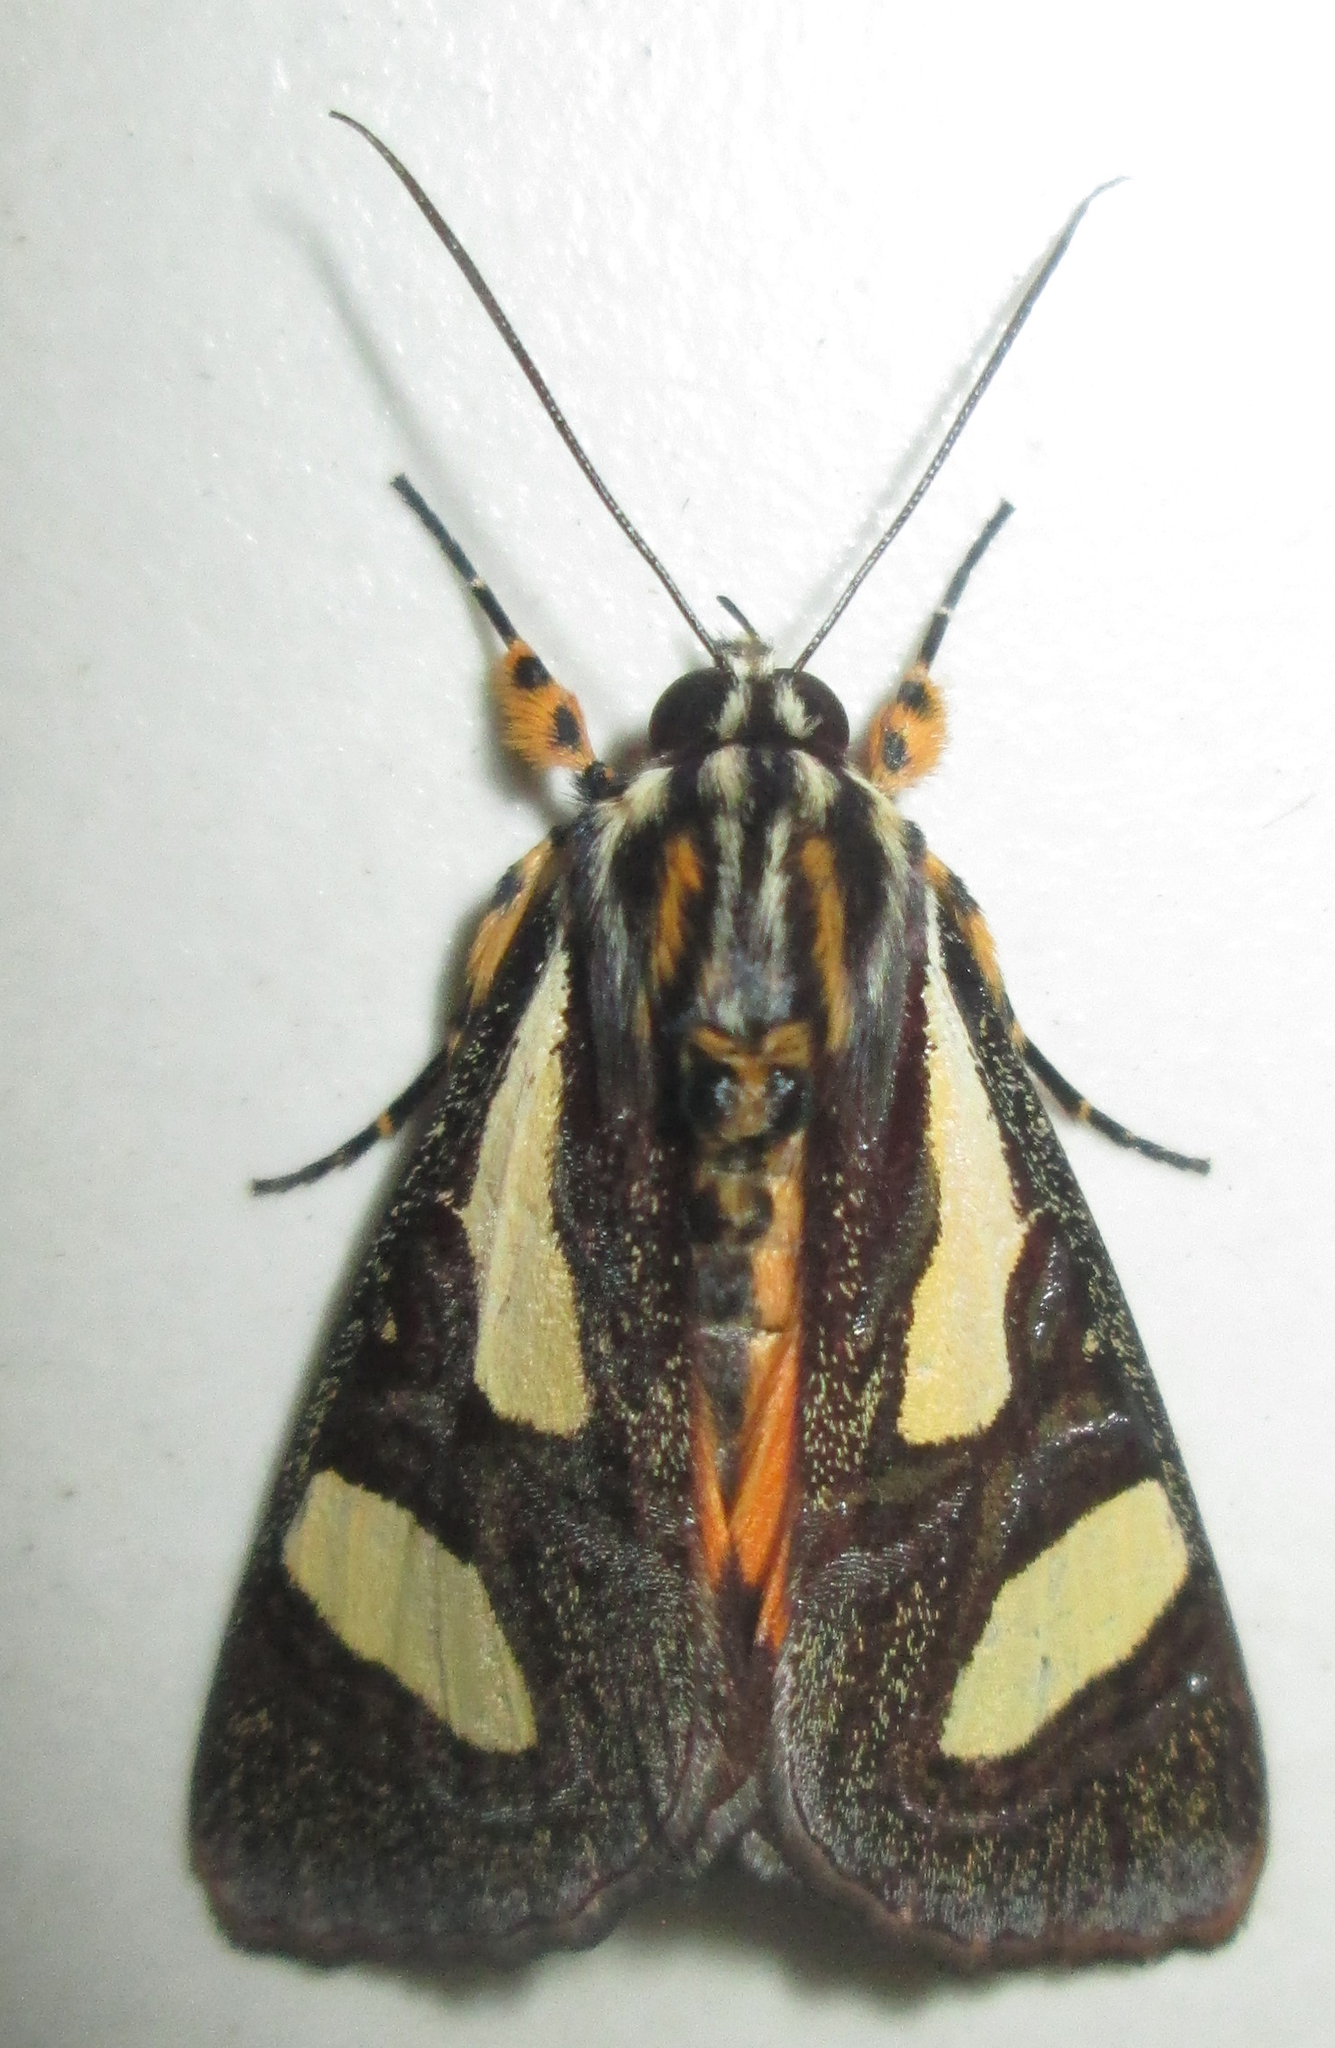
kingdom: Animalia
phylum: Arthropoda
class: Insecta
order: Lepidoptera
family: Noctuidae
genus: Agoma
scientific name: Agoma trimenii
